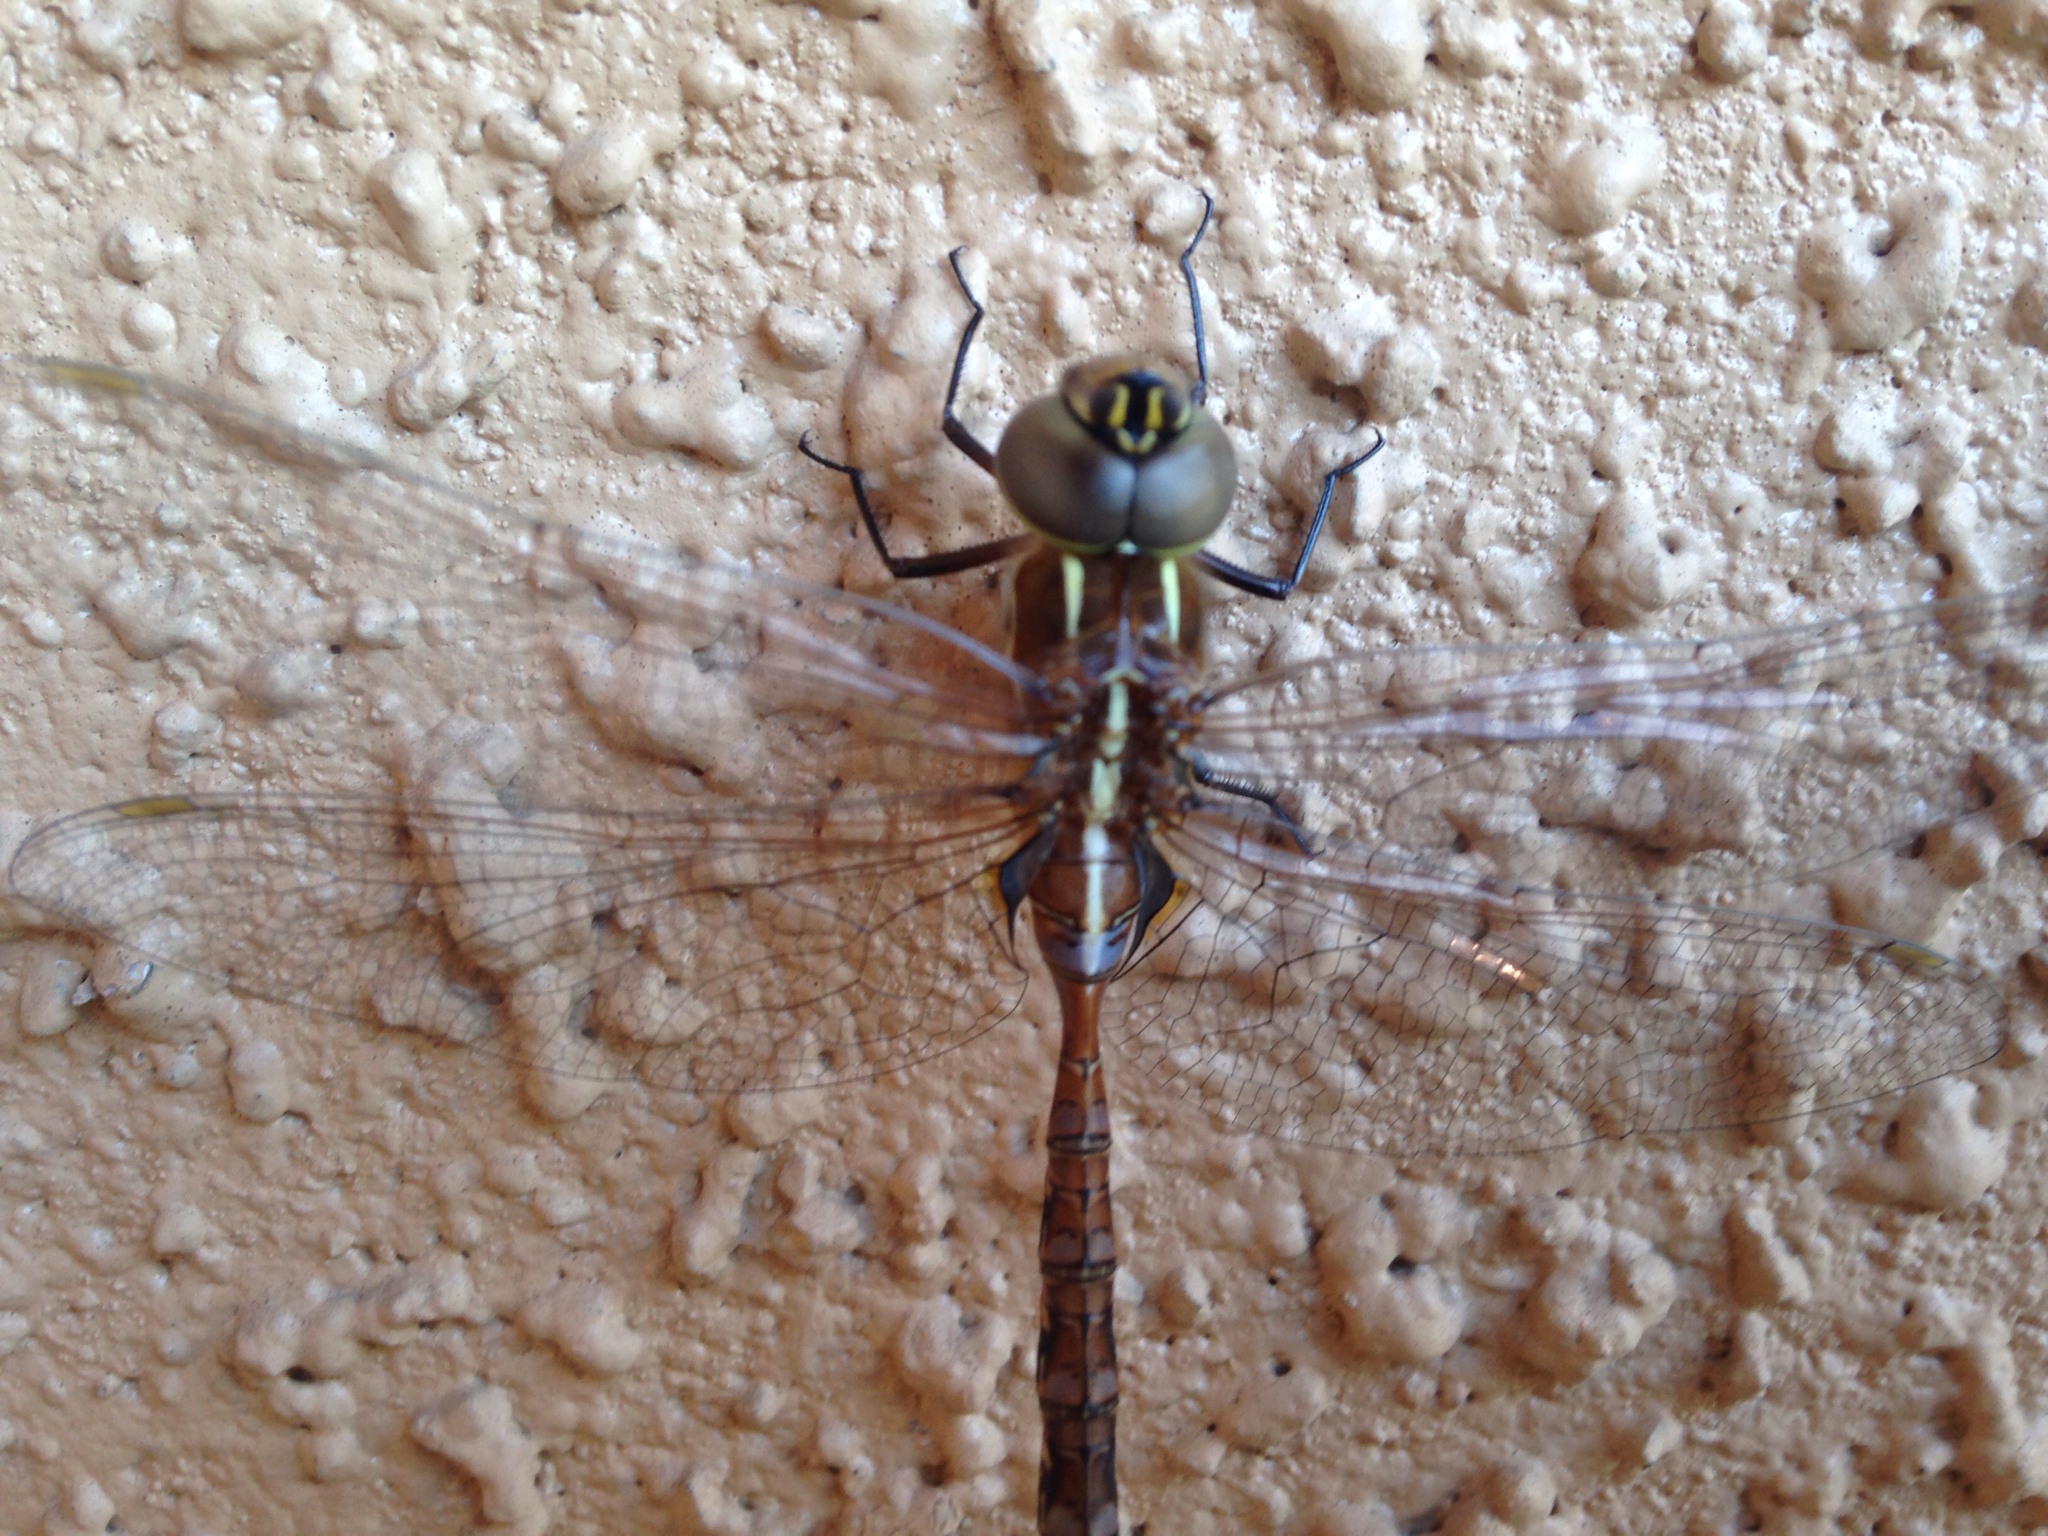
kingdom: Animalia
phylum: Arthropoda
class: Insecta
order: Odonata
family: Aeshnidae
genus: Rhionaeschna
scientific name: Rhionaeschna confusa
